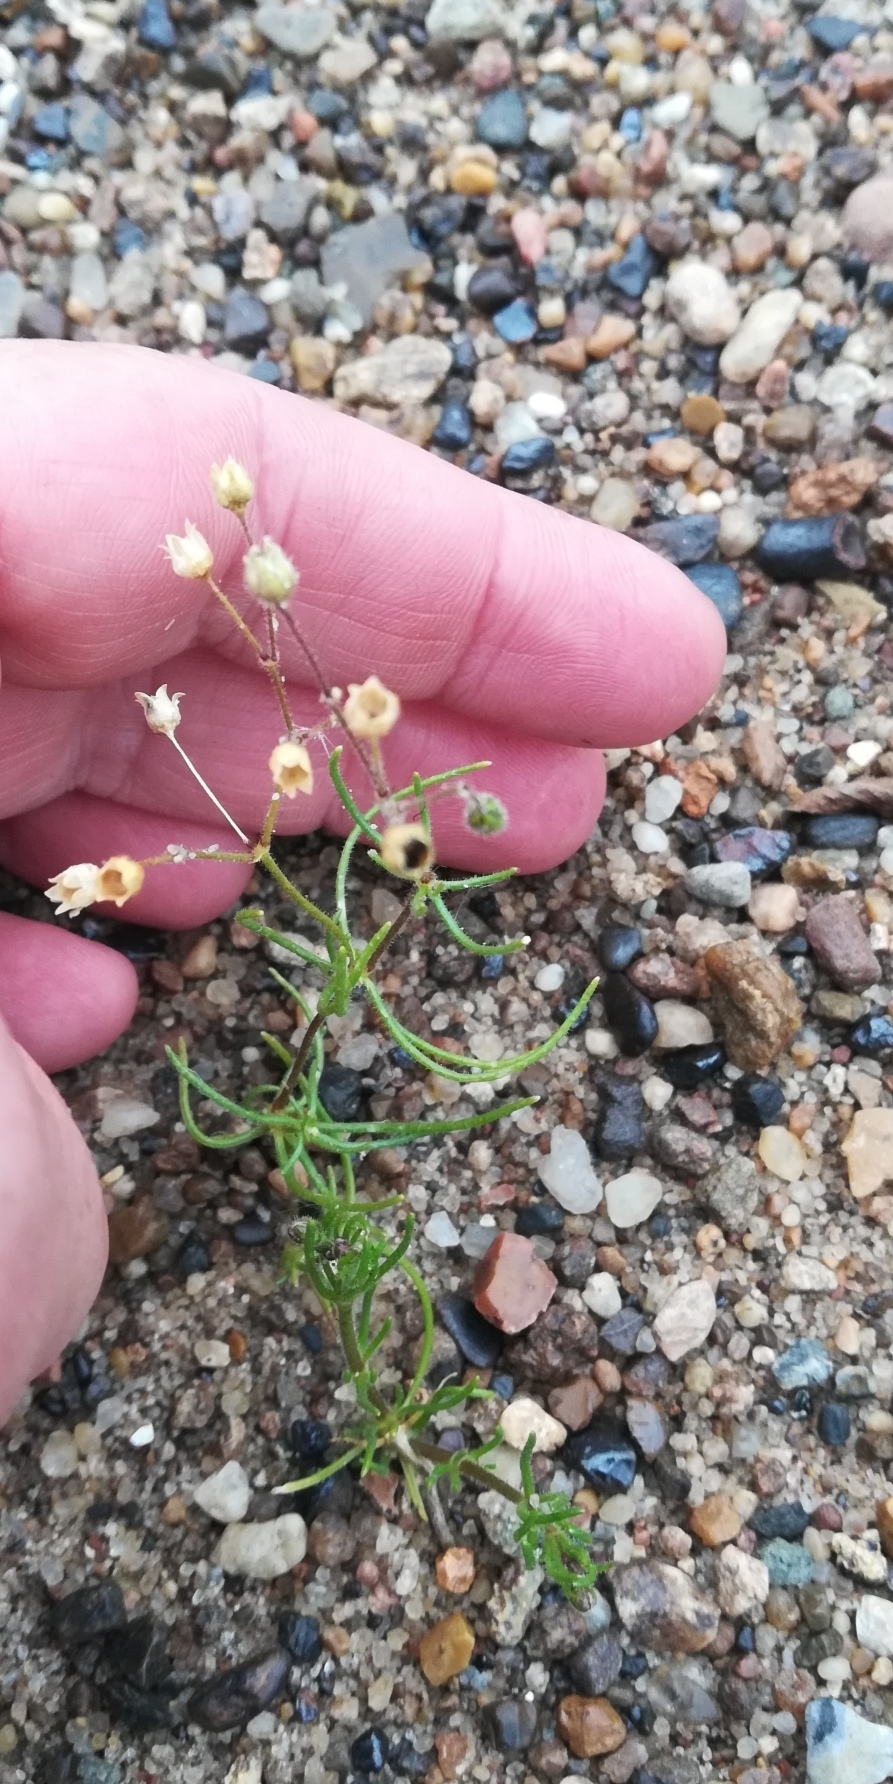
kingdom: Plantae
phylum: Tracheophyta
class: Magnoliopsida
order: Caryophyllales
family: Caryophyllaceae
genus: Spergula
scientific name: Spergula arvensis
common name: Corn spurrey
